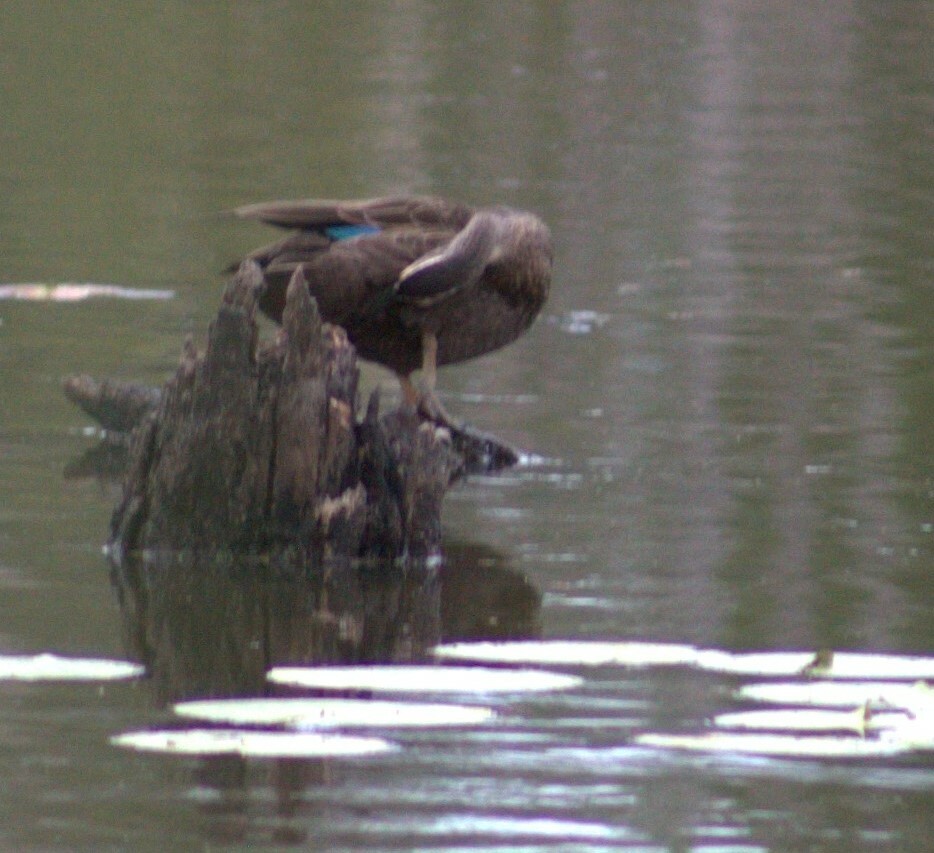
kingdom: Animalia
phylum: Chordata
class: Aves
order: Anseriformes
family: Anatidae
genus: Anas
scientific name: Anas superciliosa
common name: Pacific black duck
